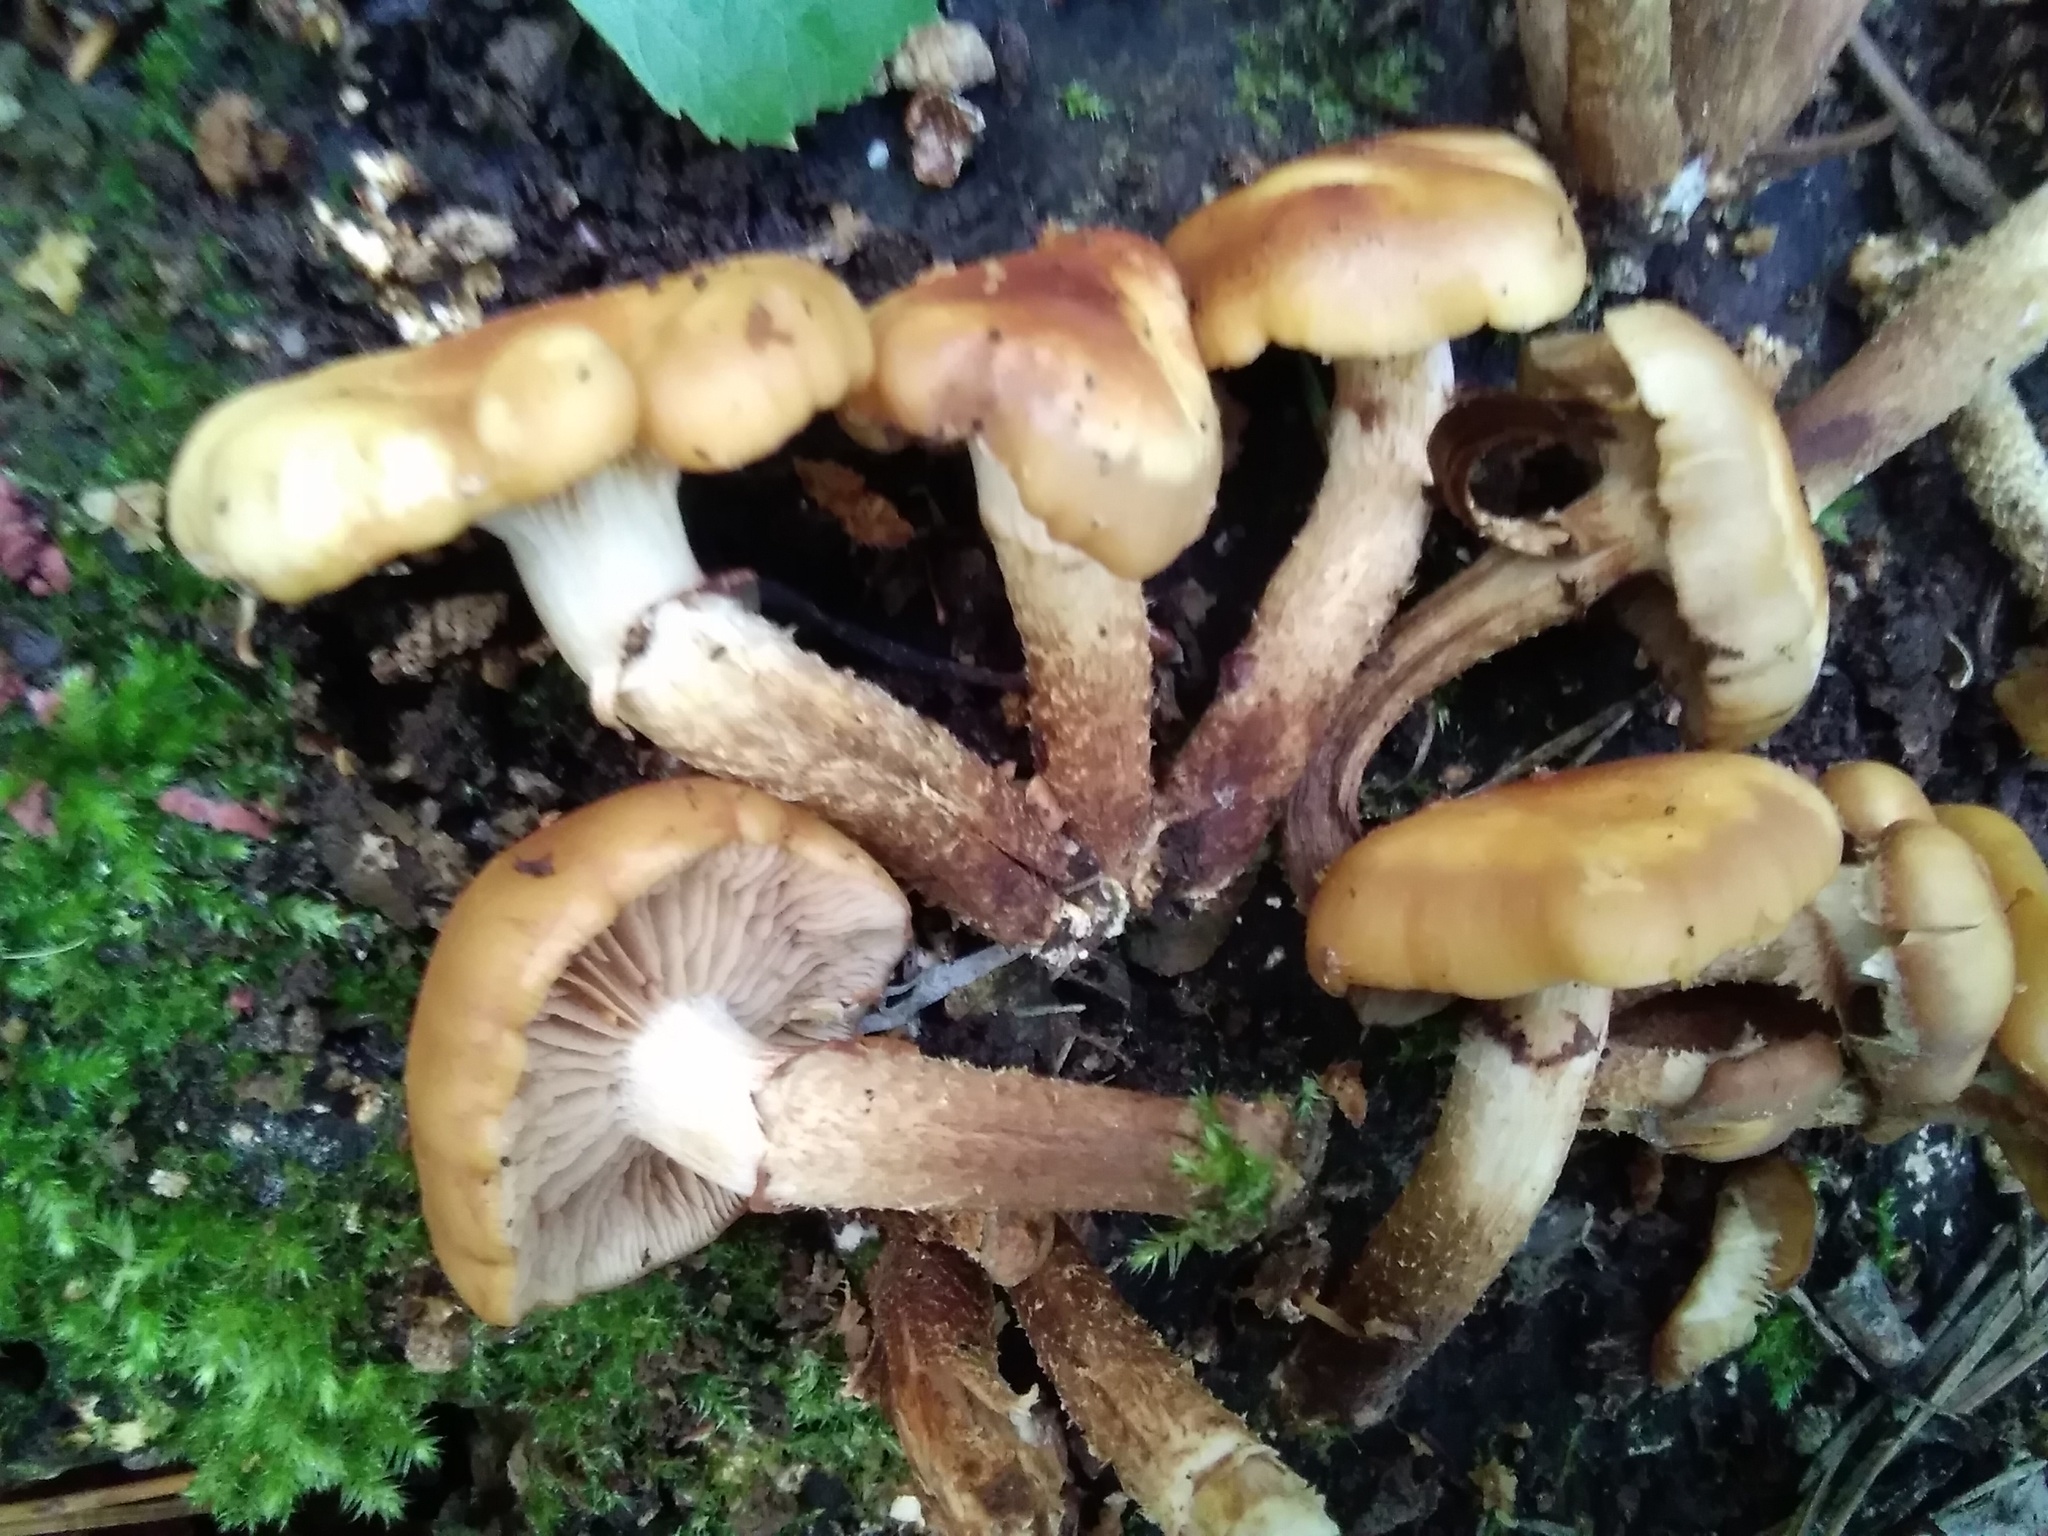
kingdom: Fungi
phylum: Basidiomycota
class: Agaricomycetes
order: Agaricales
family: Strophariaceae
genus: Kuehneromyces
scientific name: Kuehneromyces mutabilis
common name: Sheathed woodtuft
